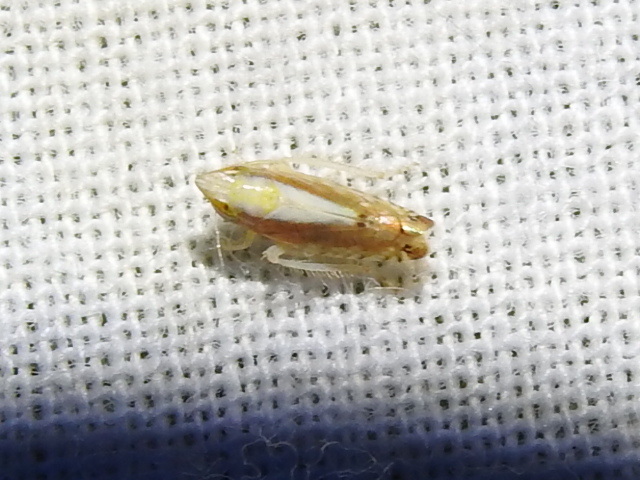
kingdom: Animalia
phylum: Arthropoda
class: Insecta
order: Hemiptera
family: Cicadellidae
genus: Scaphytopius
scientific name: Scaphytopius elegans
